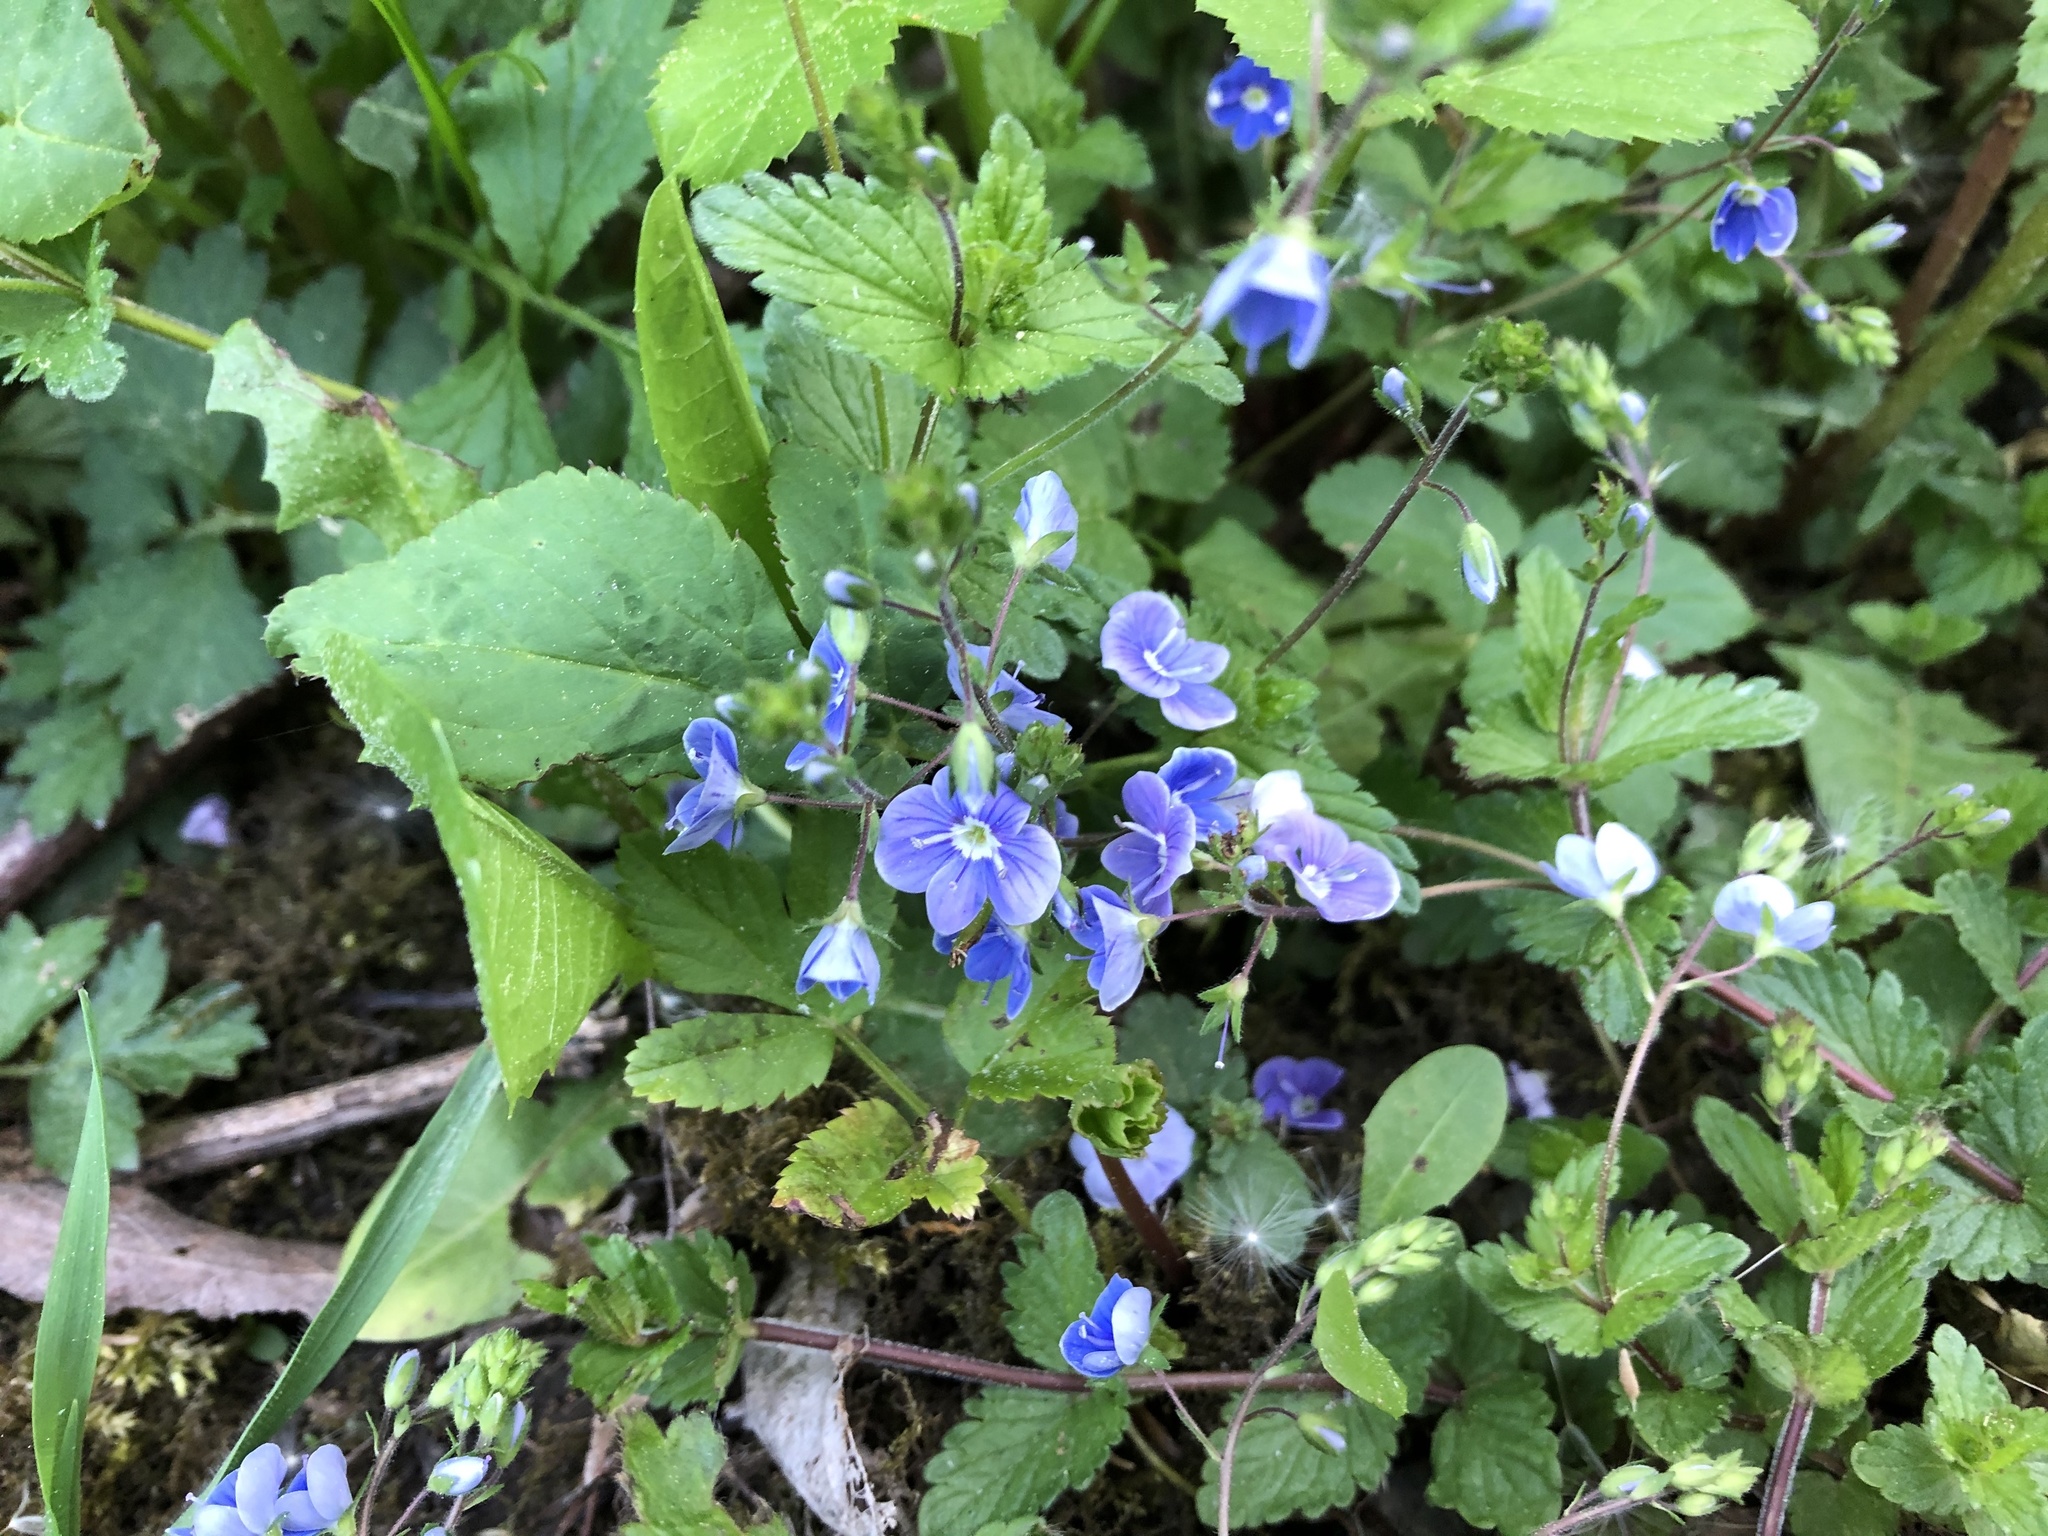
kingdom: Plantae
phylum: Tracheophyta
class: Magnoliopsida
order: Lamiales
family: Plantaginaceae
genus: Veronica
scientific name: Veronica chamaedrys
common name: Germander speedwell
